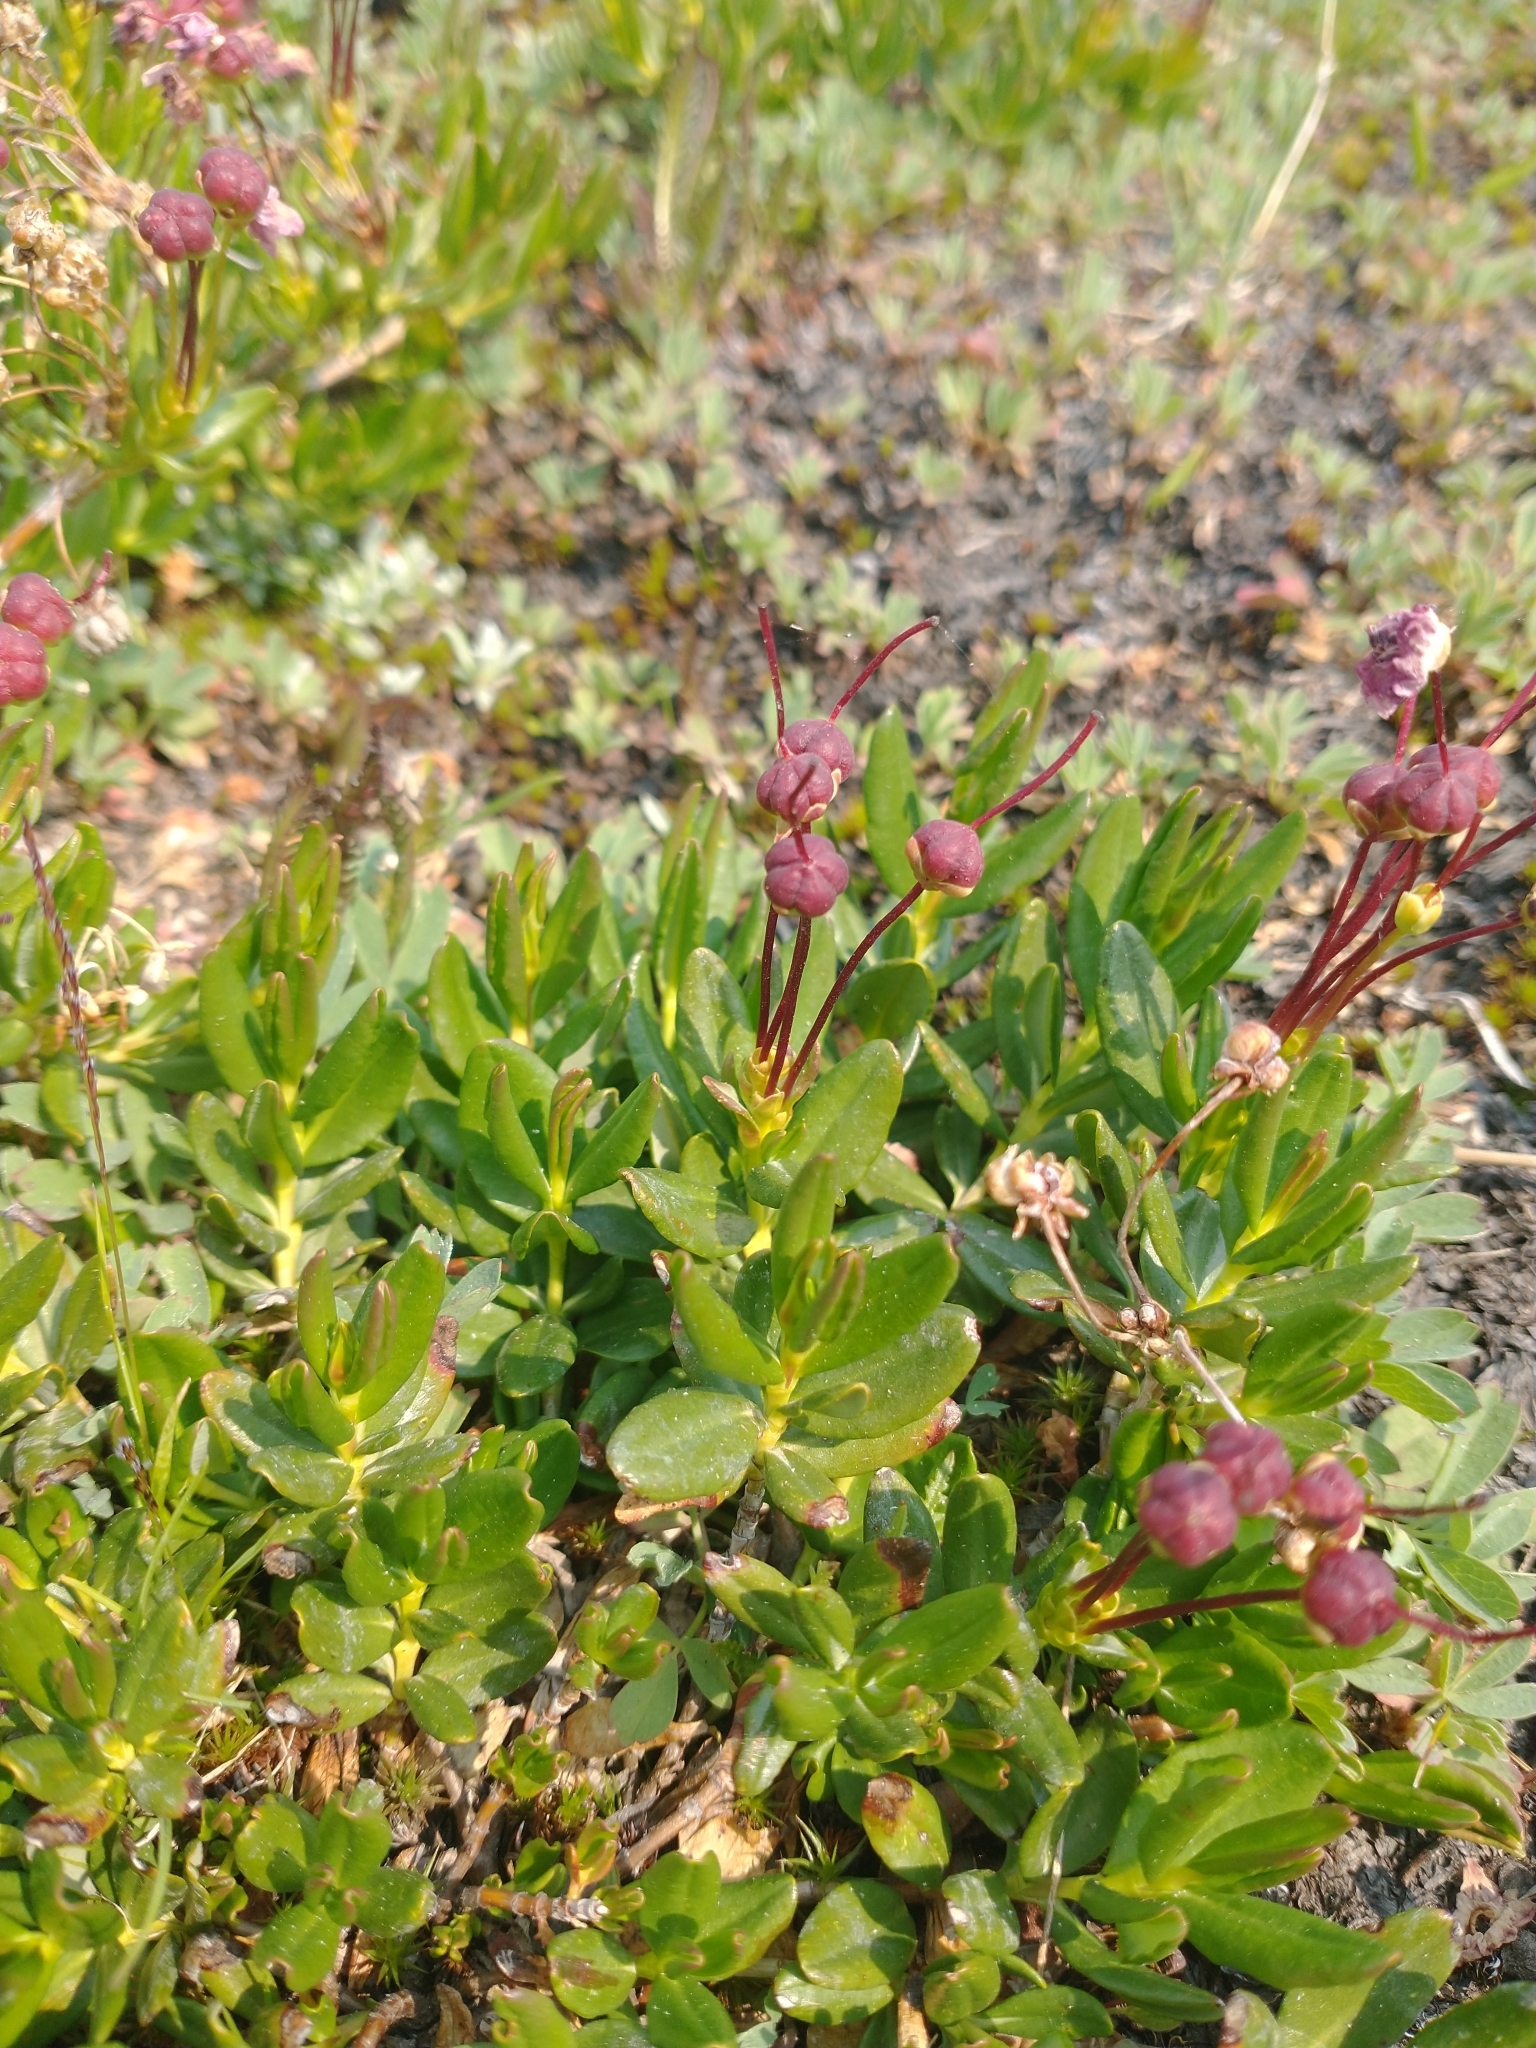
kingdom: Plantae
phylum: Tracheophyta
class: Magnoliopsida
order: Ericales
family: Ericaceae
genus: Kalmia
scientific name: Kalmia microphylla
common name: Alpine bog laurel
